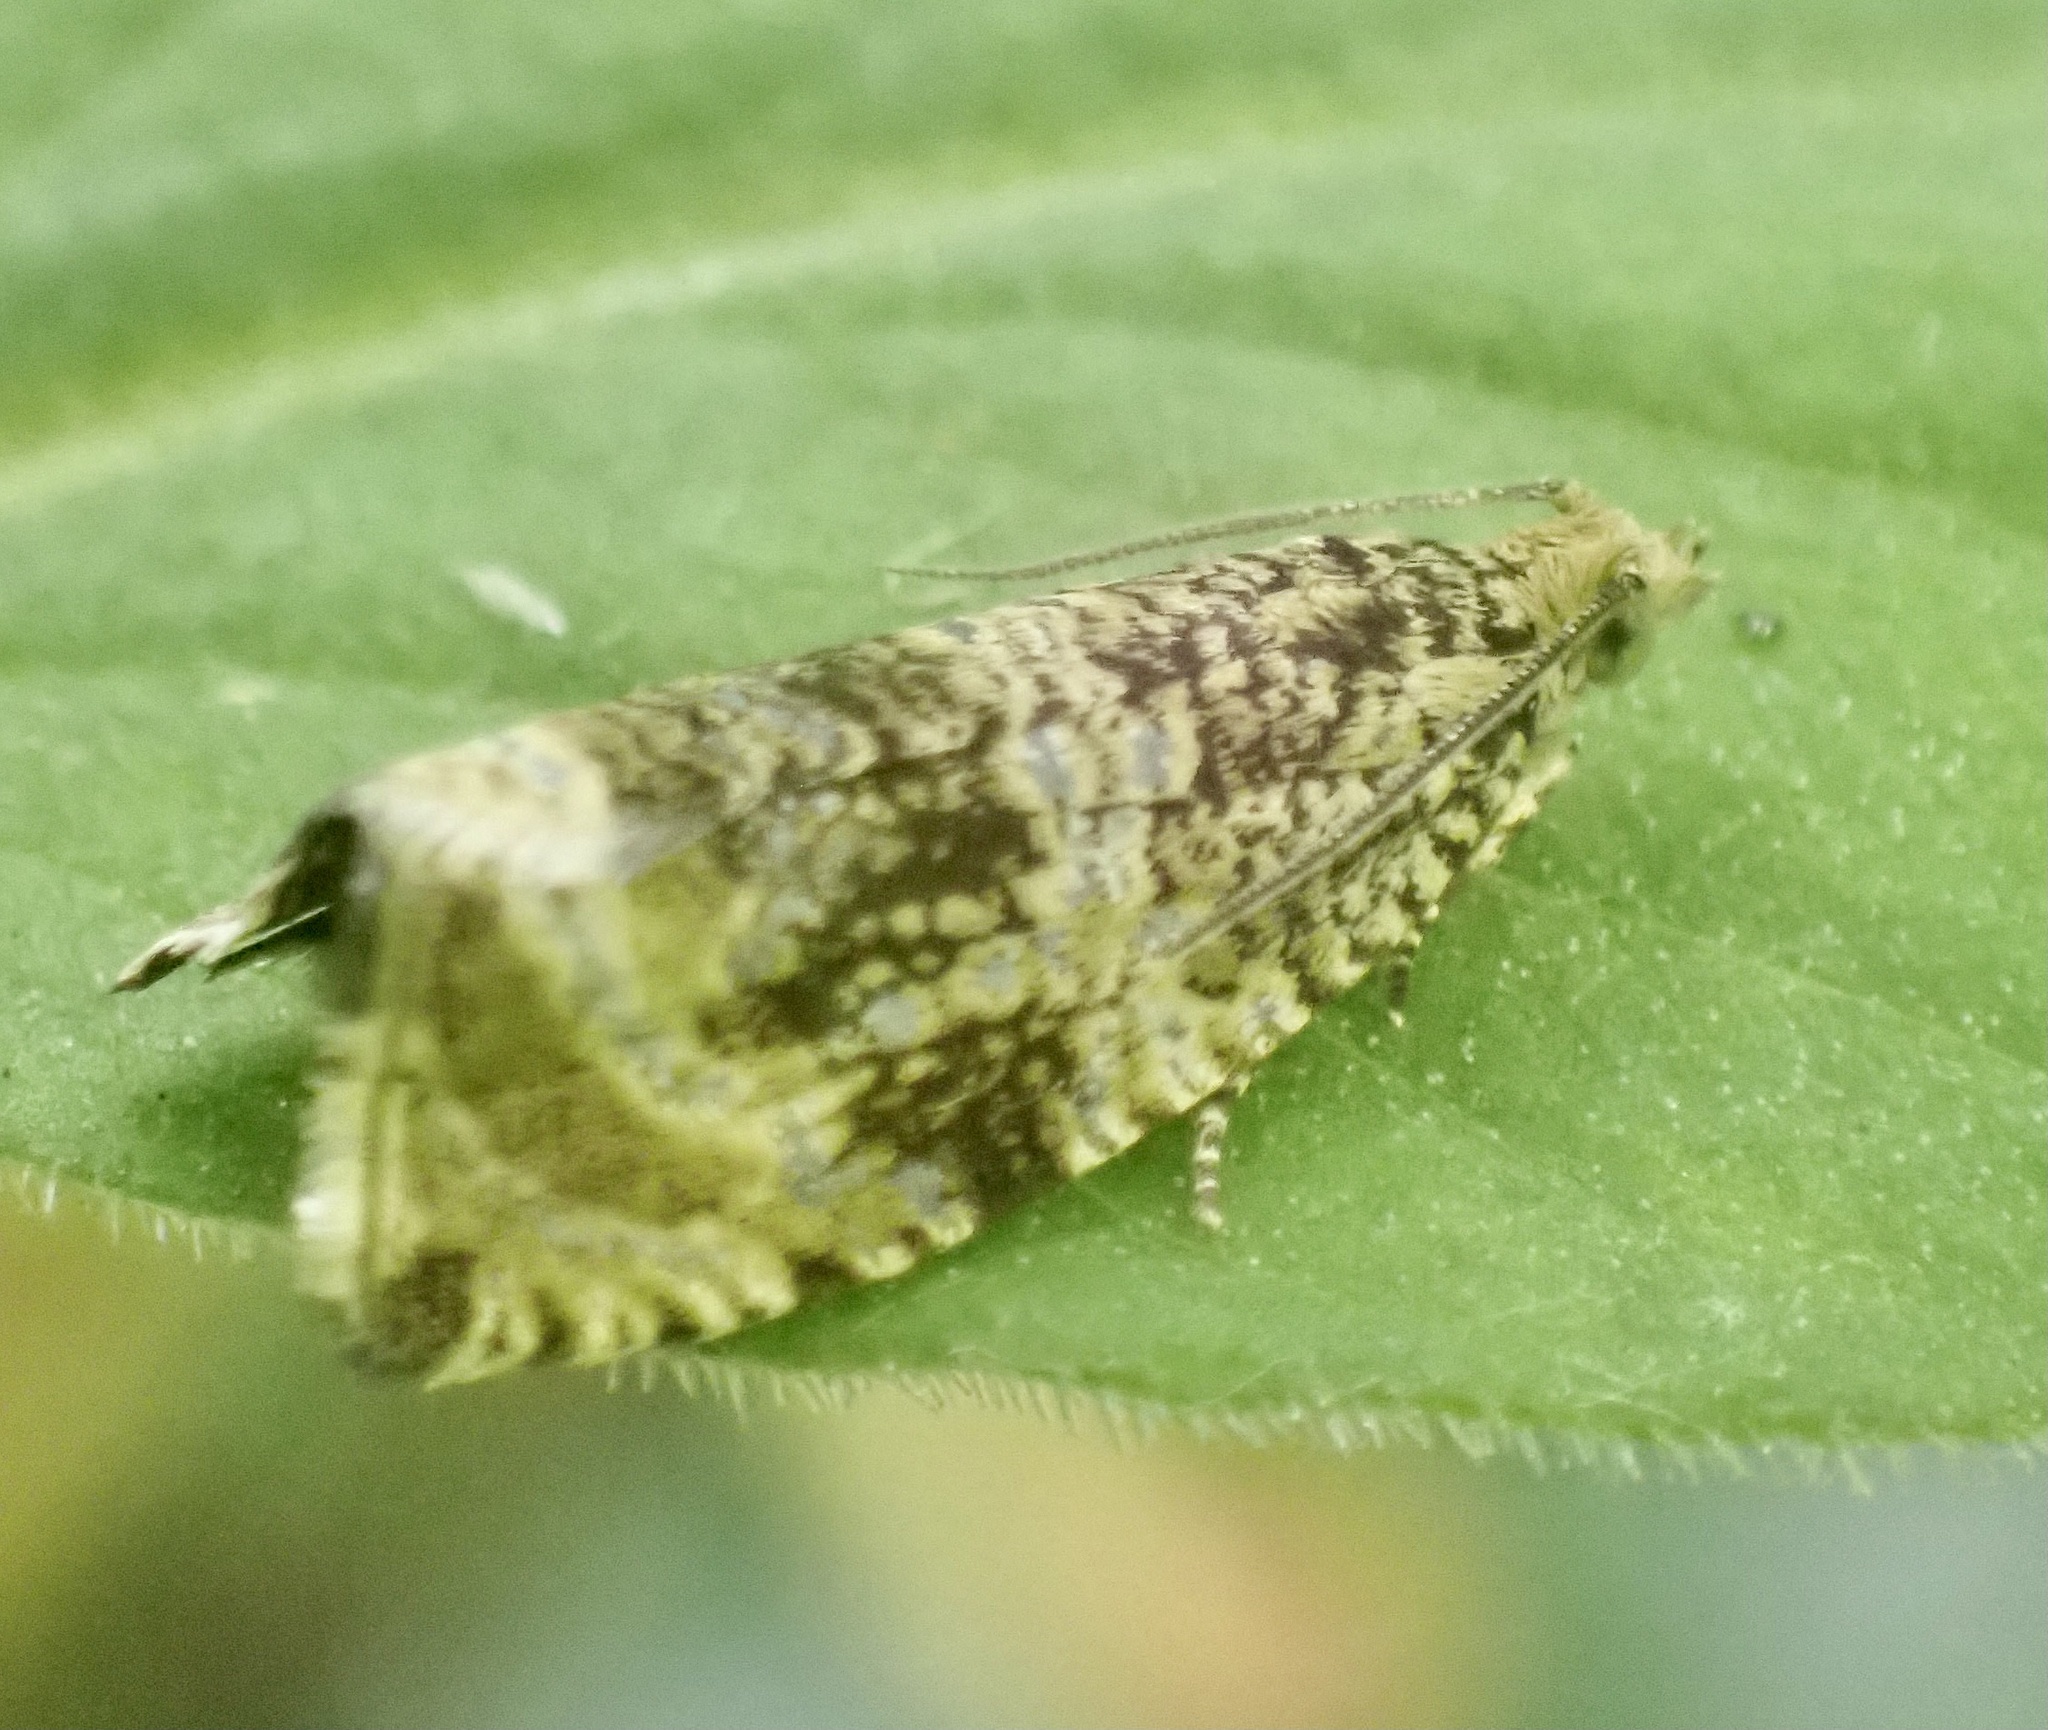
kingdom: Animalia
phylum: Arthropoda
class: Insecta
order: Lepidoptera
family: Tortricidae
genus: Syricoris
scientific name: Syricoris lacunana
